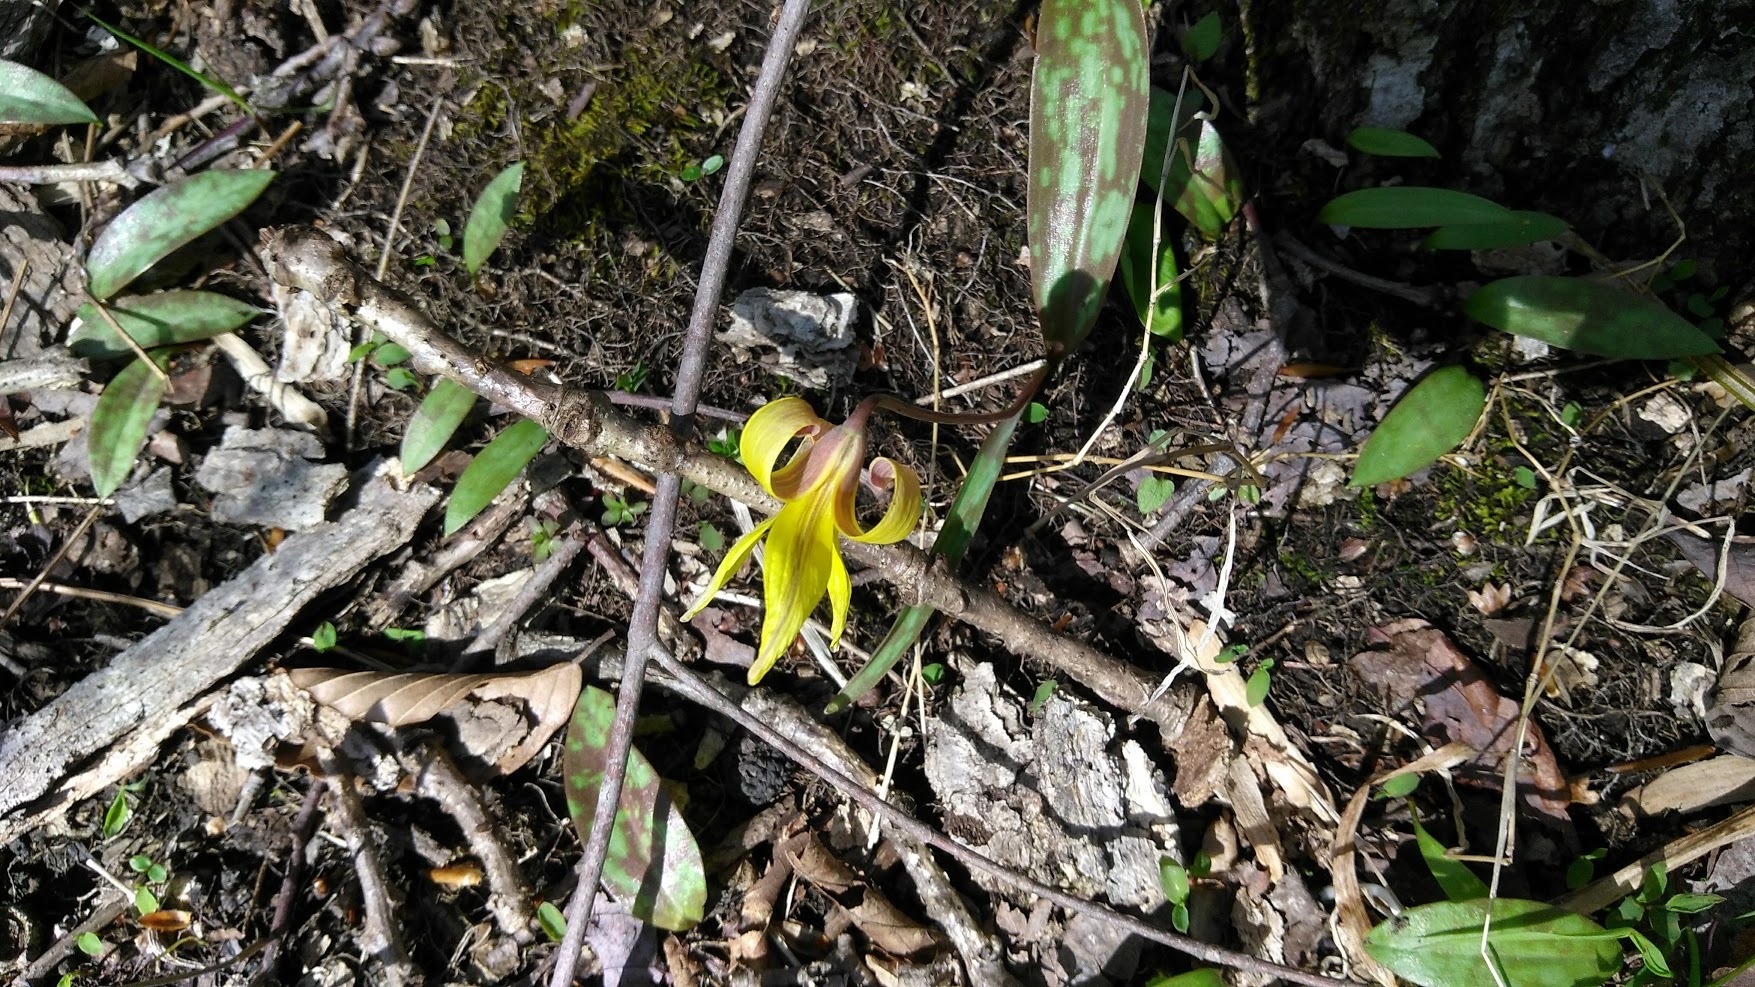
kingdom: Plantae
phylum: Tracheophyta
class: Liliopsida
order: Liliales
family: Liliaceae
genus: Erythronium
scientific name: Erythronium americanum
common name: Yellow adder's-tongue
